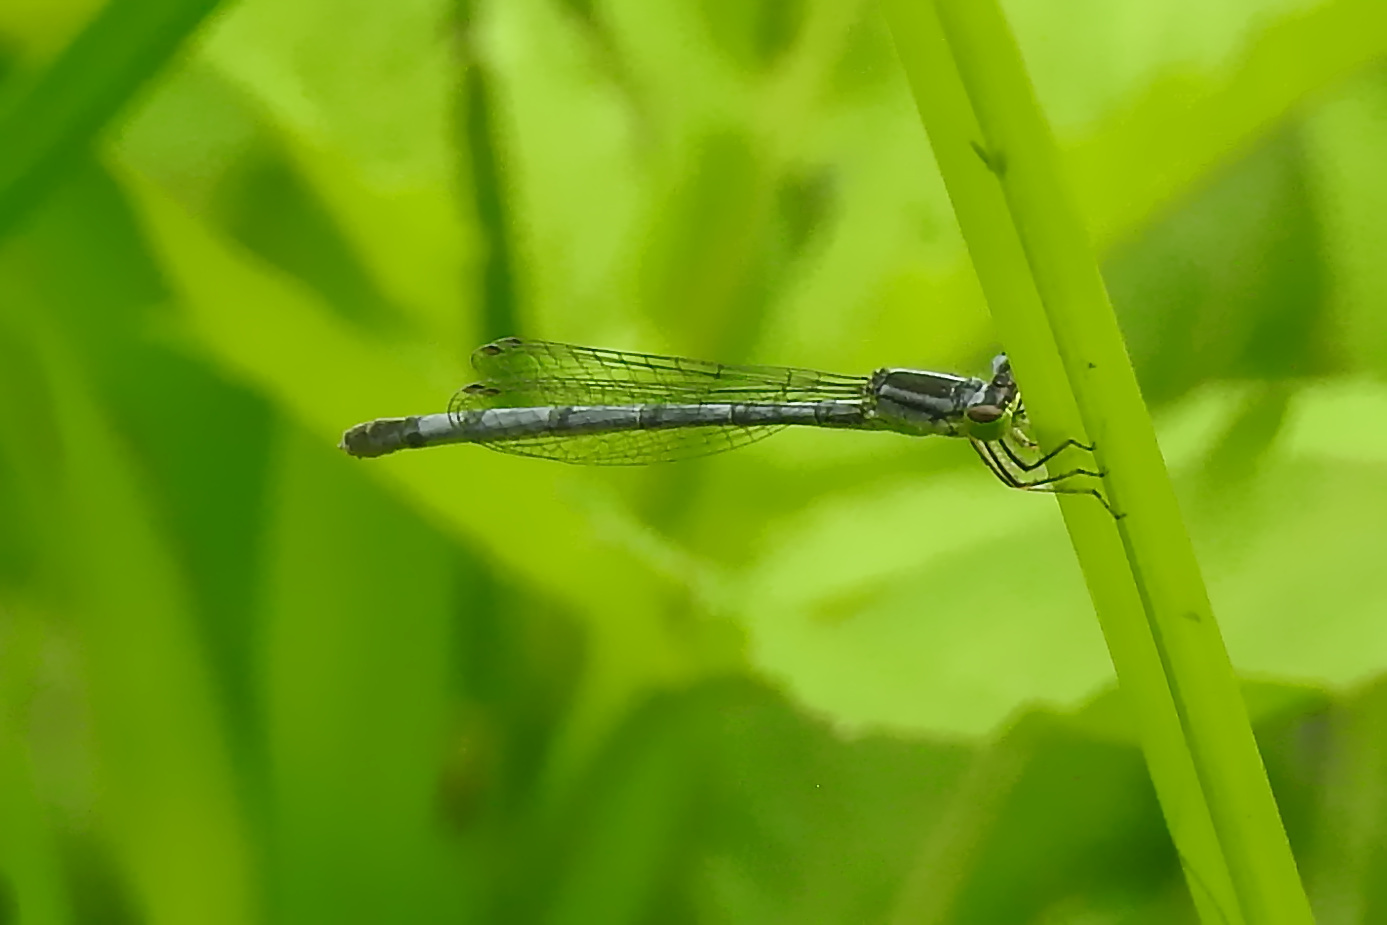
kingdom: Animalia
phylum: Arthropoda
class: Insecta
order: Odonata
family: Coenagrionidae
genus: Ischnura
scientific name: Ischnura verticalis
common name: Eastern forktail
